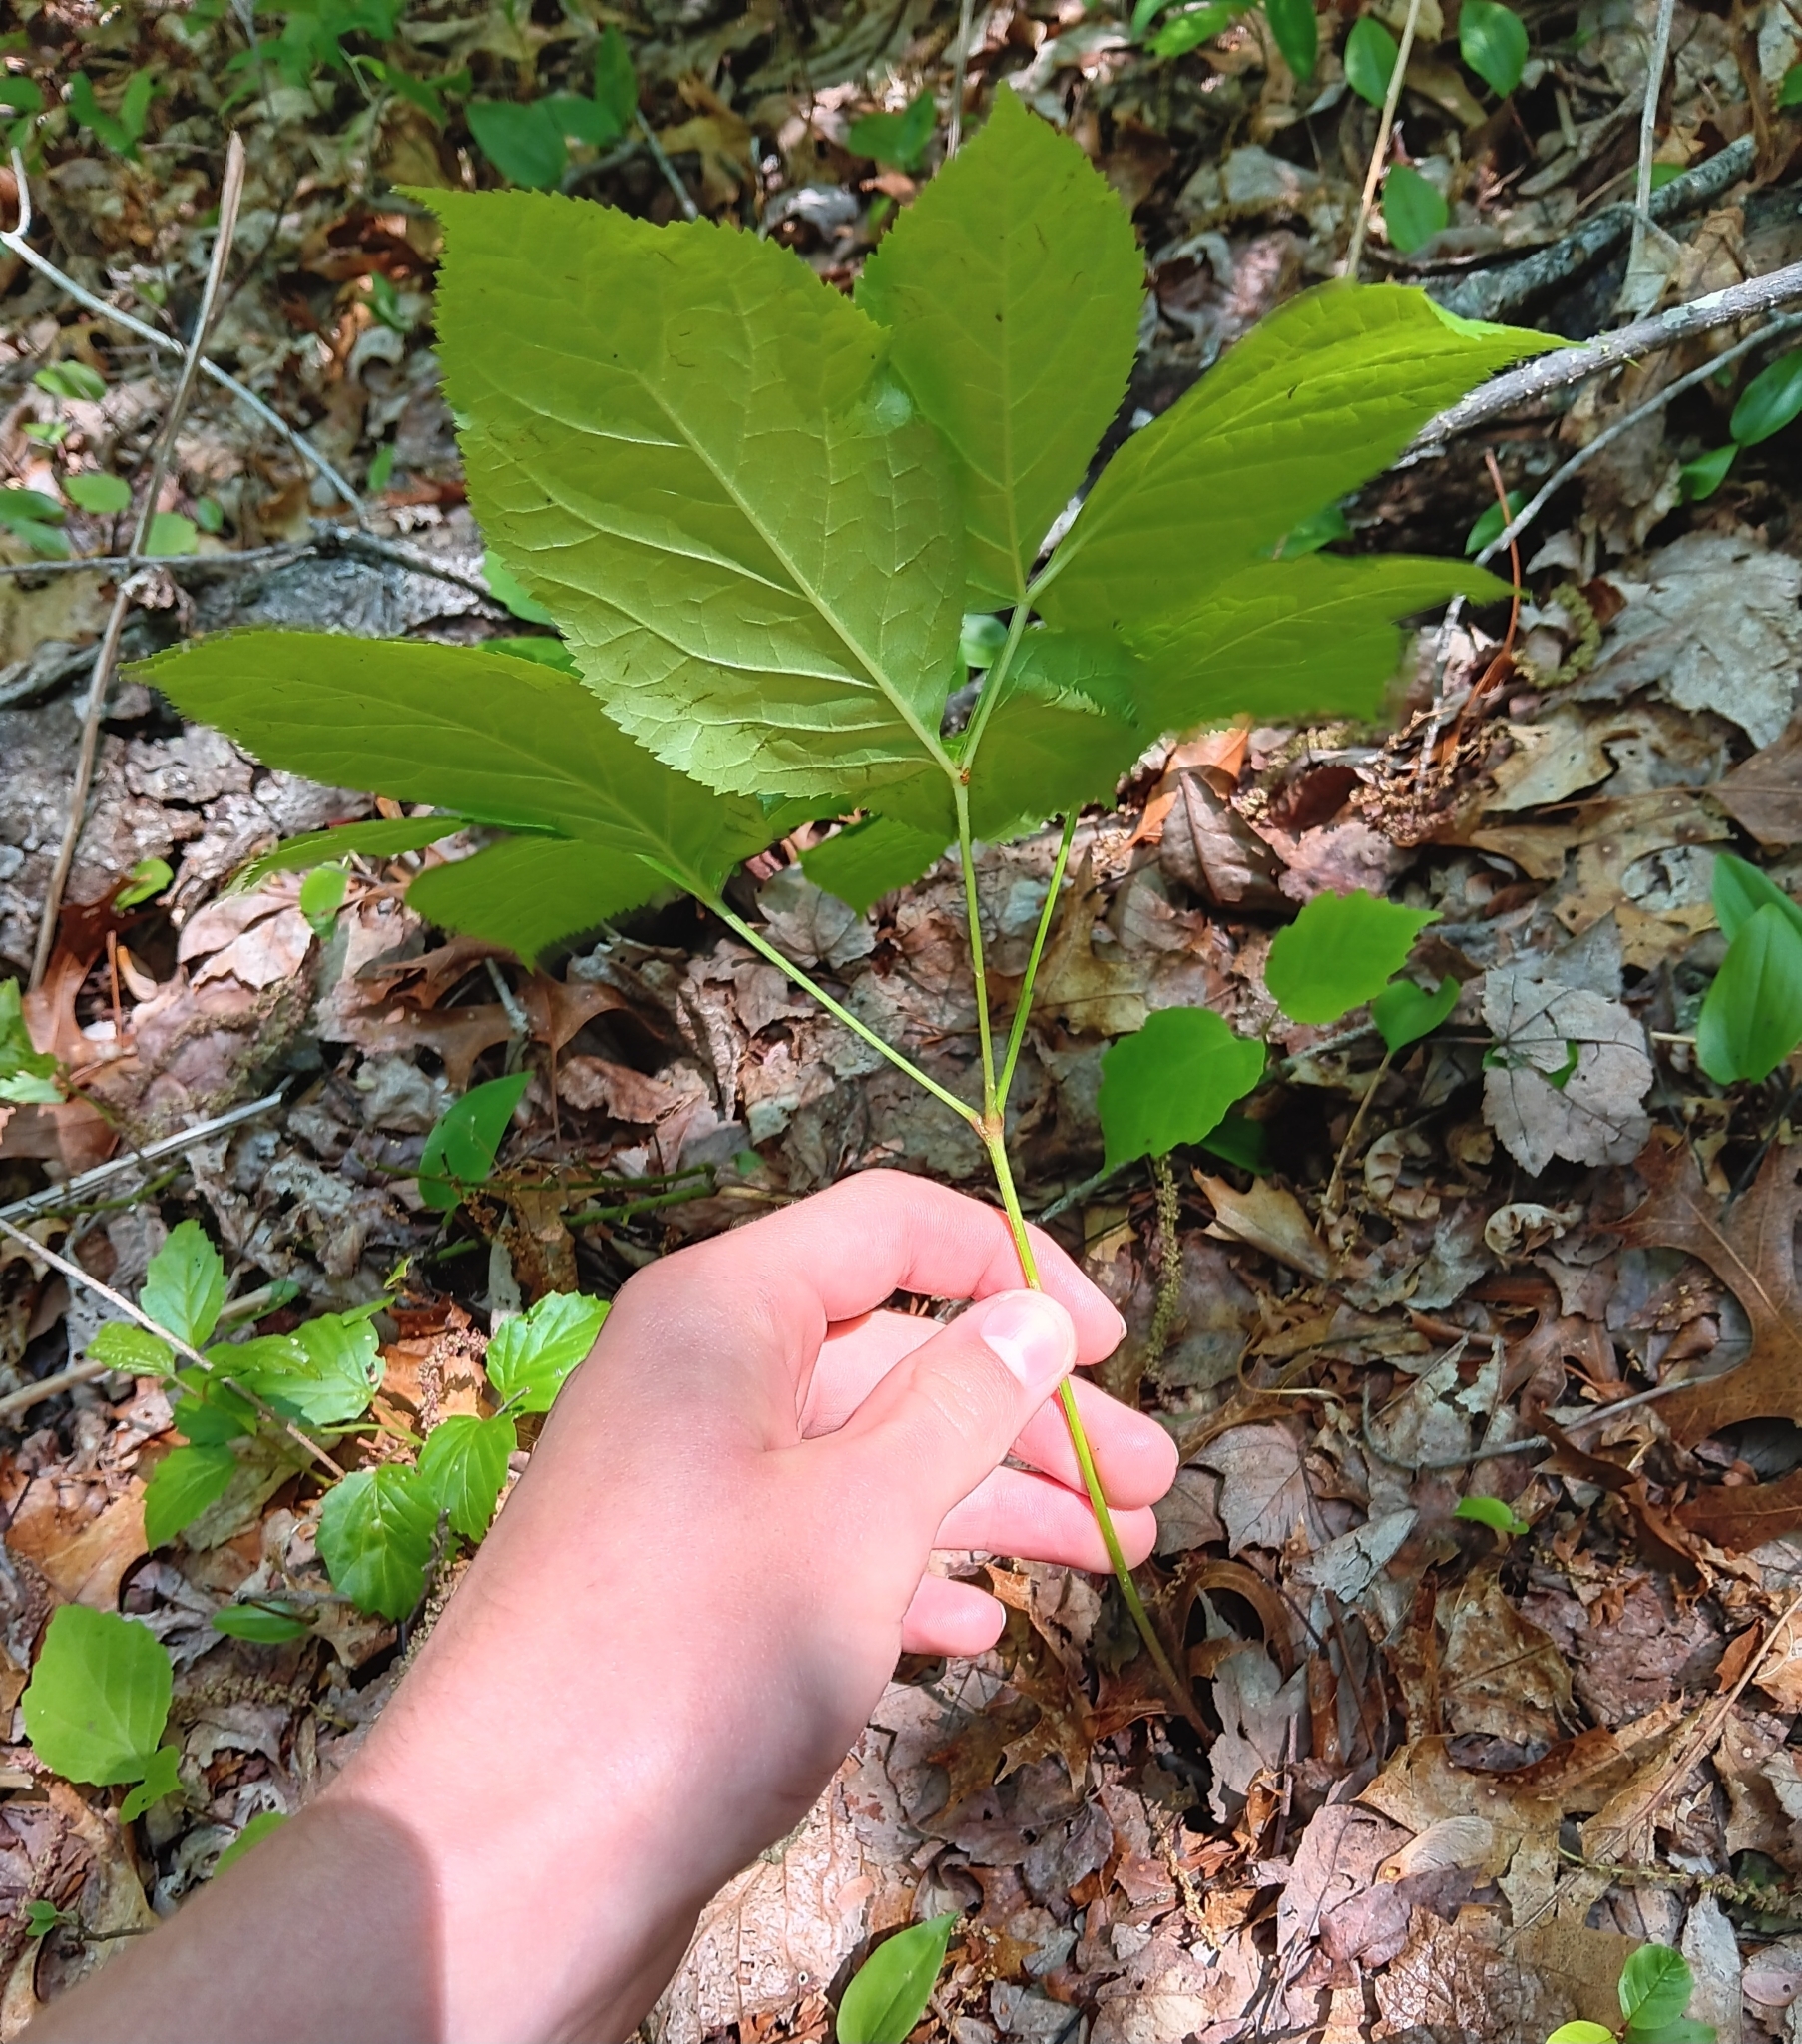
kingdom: Plantae
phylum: Tracheophyta
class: Magnoliopsida
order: Apiales
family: Araliaceae
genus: Aralia
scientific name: Aralia nudicaulis
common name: Wild sarsaparilla
